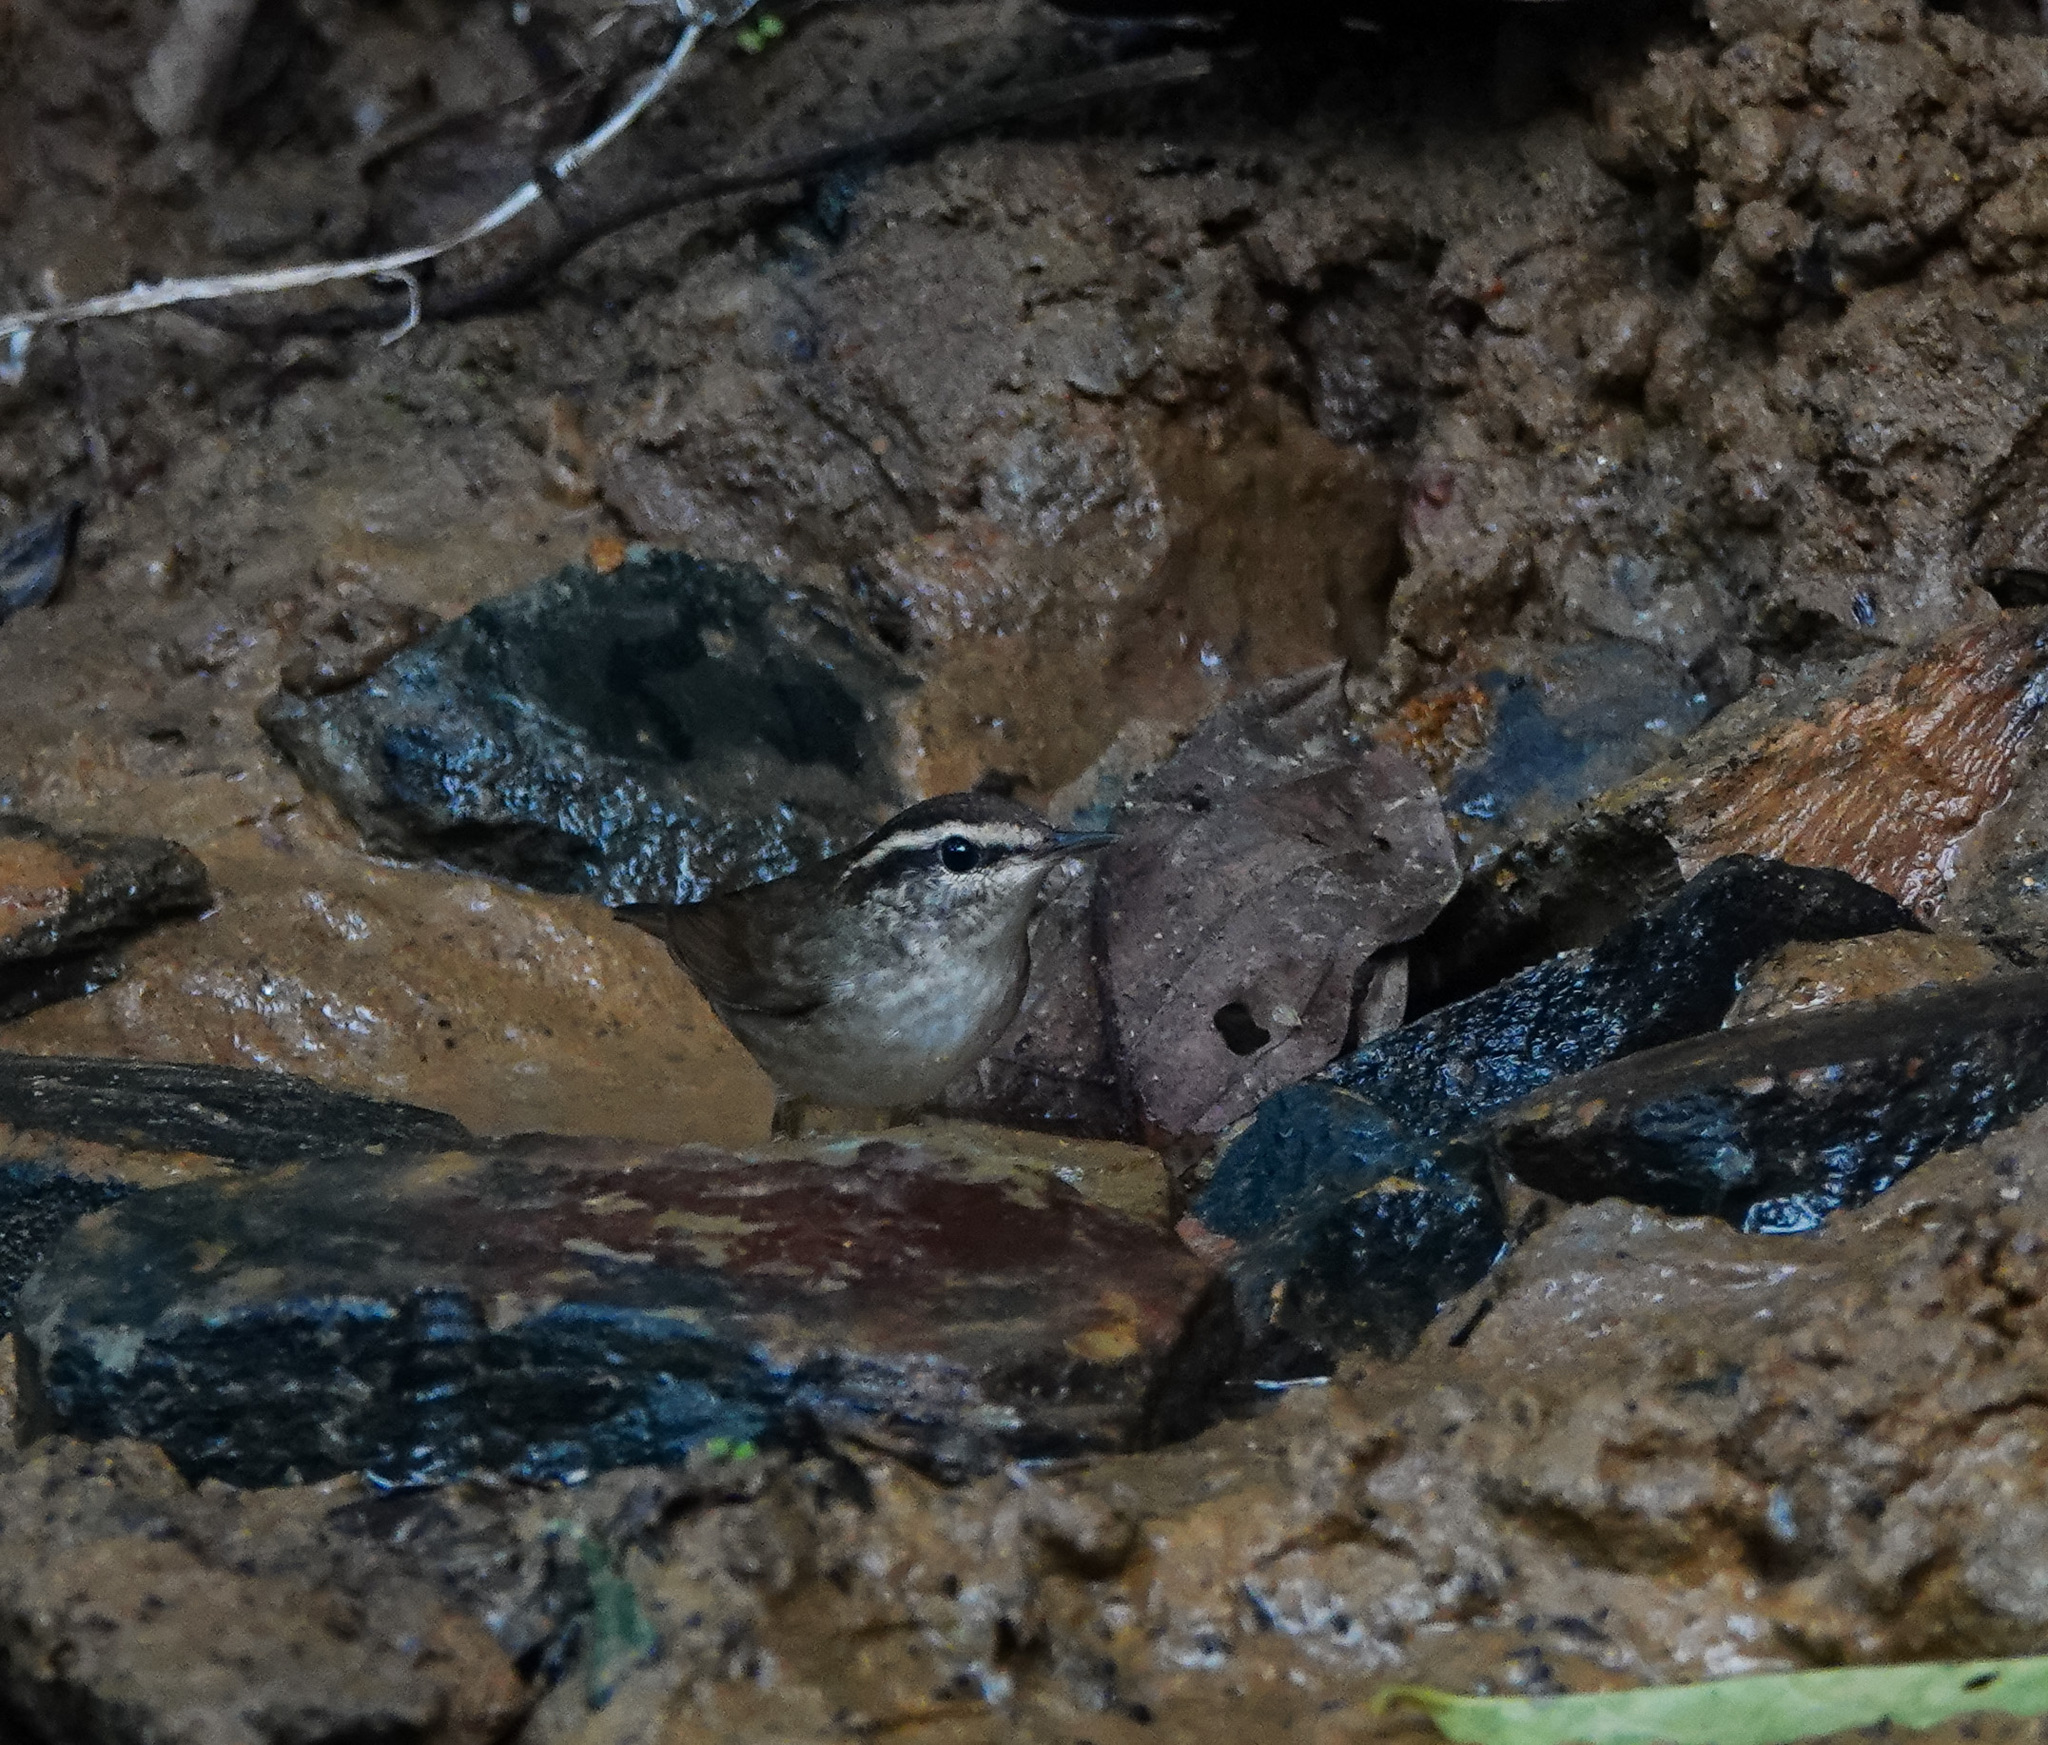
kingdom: Animalia
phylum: Chordata
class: Aves
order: Passeriformes
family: Cettiidae
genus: Urosphena
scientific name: Urosphena squameiceps
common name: Asian stubtail
